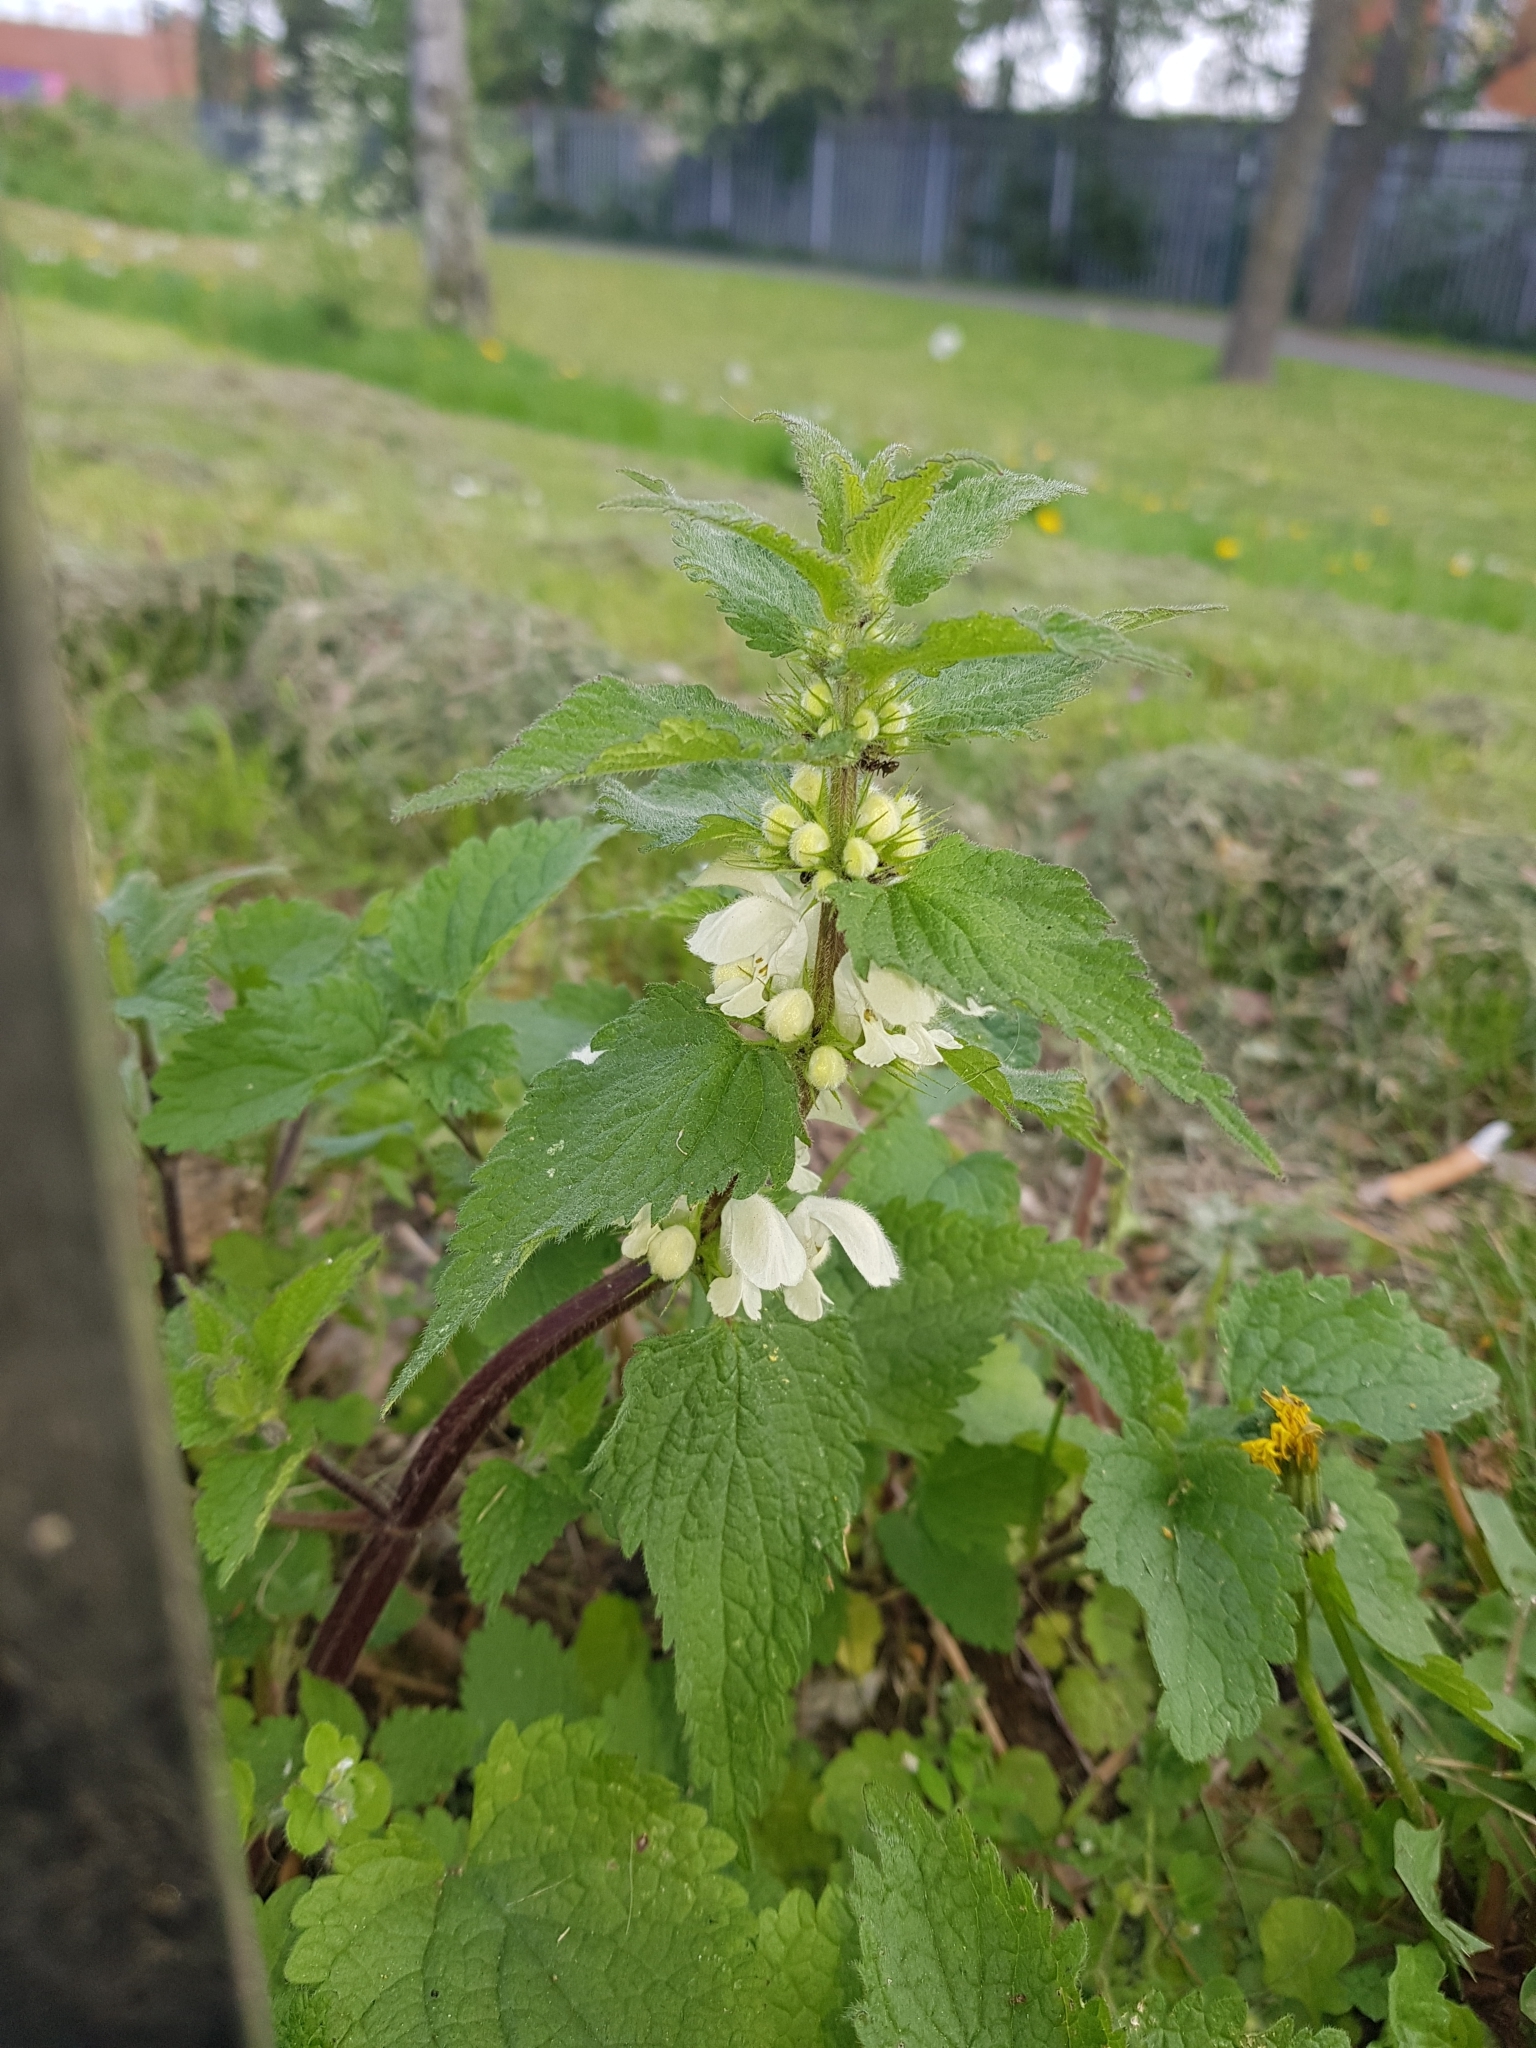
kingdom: Plantae
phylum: Tracheophyta
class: Magnoliopsida
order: Lamiales
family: Lamiaceae
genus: Lamium
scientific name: Lamium album
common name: White dead-nettle
